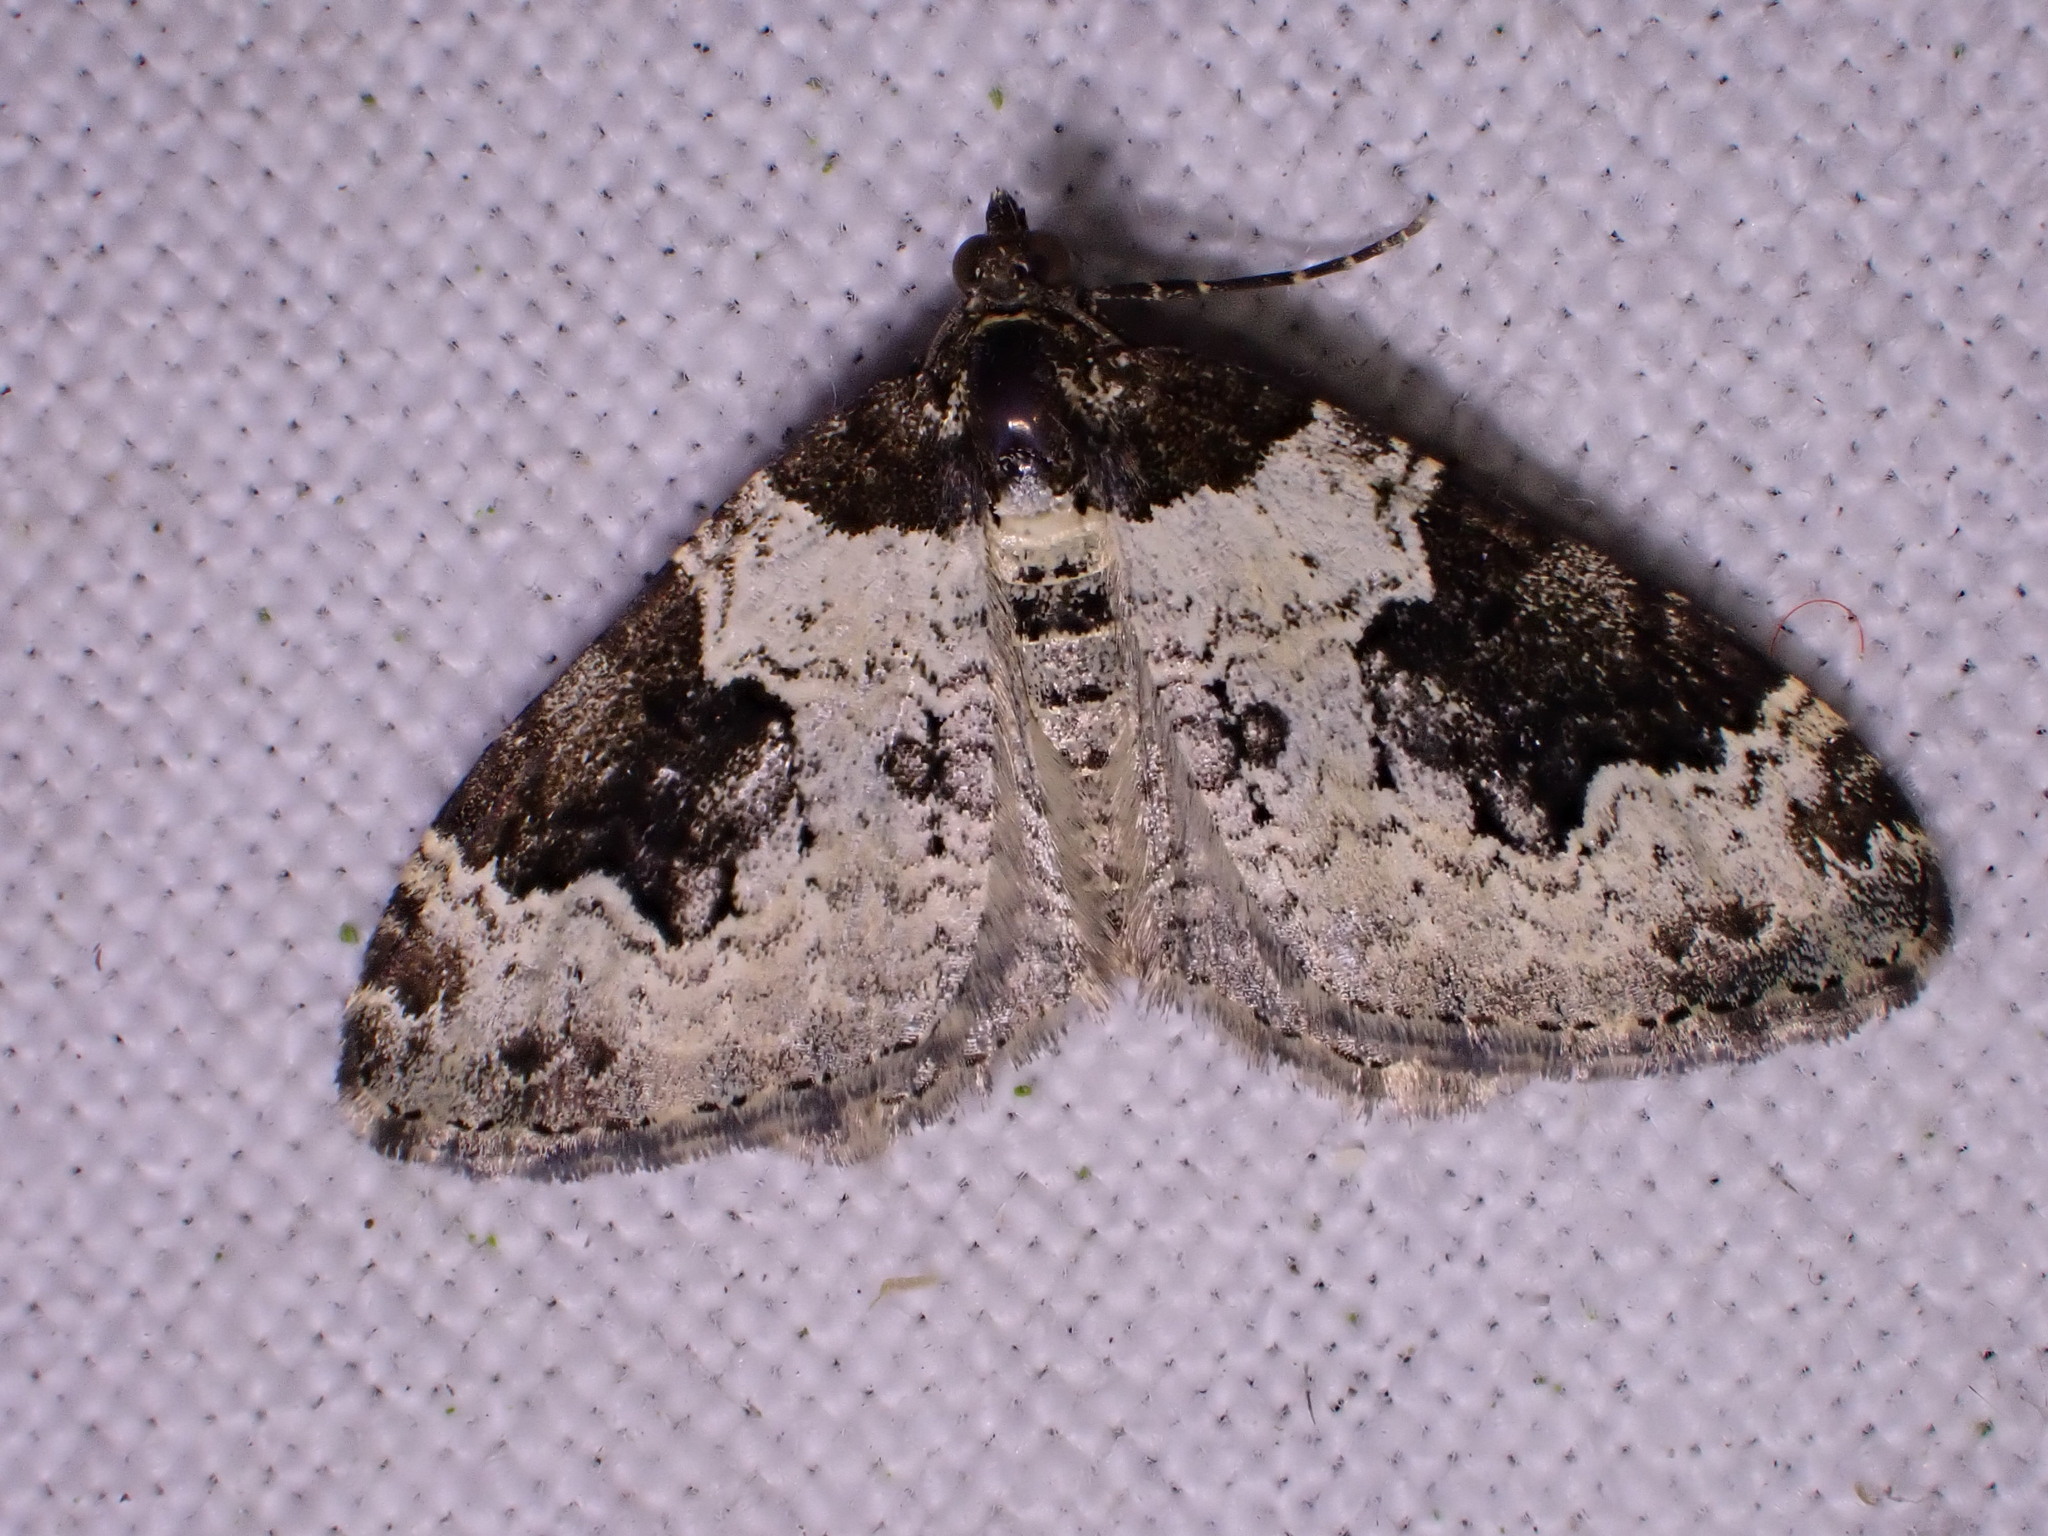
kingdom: Animalia
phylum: Arthropoda
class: Insecta
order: Lepidoptera
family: Geometridae
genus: Xanthorhoe
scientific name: Xanthorhoe fluctuata
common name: Garden carpet
